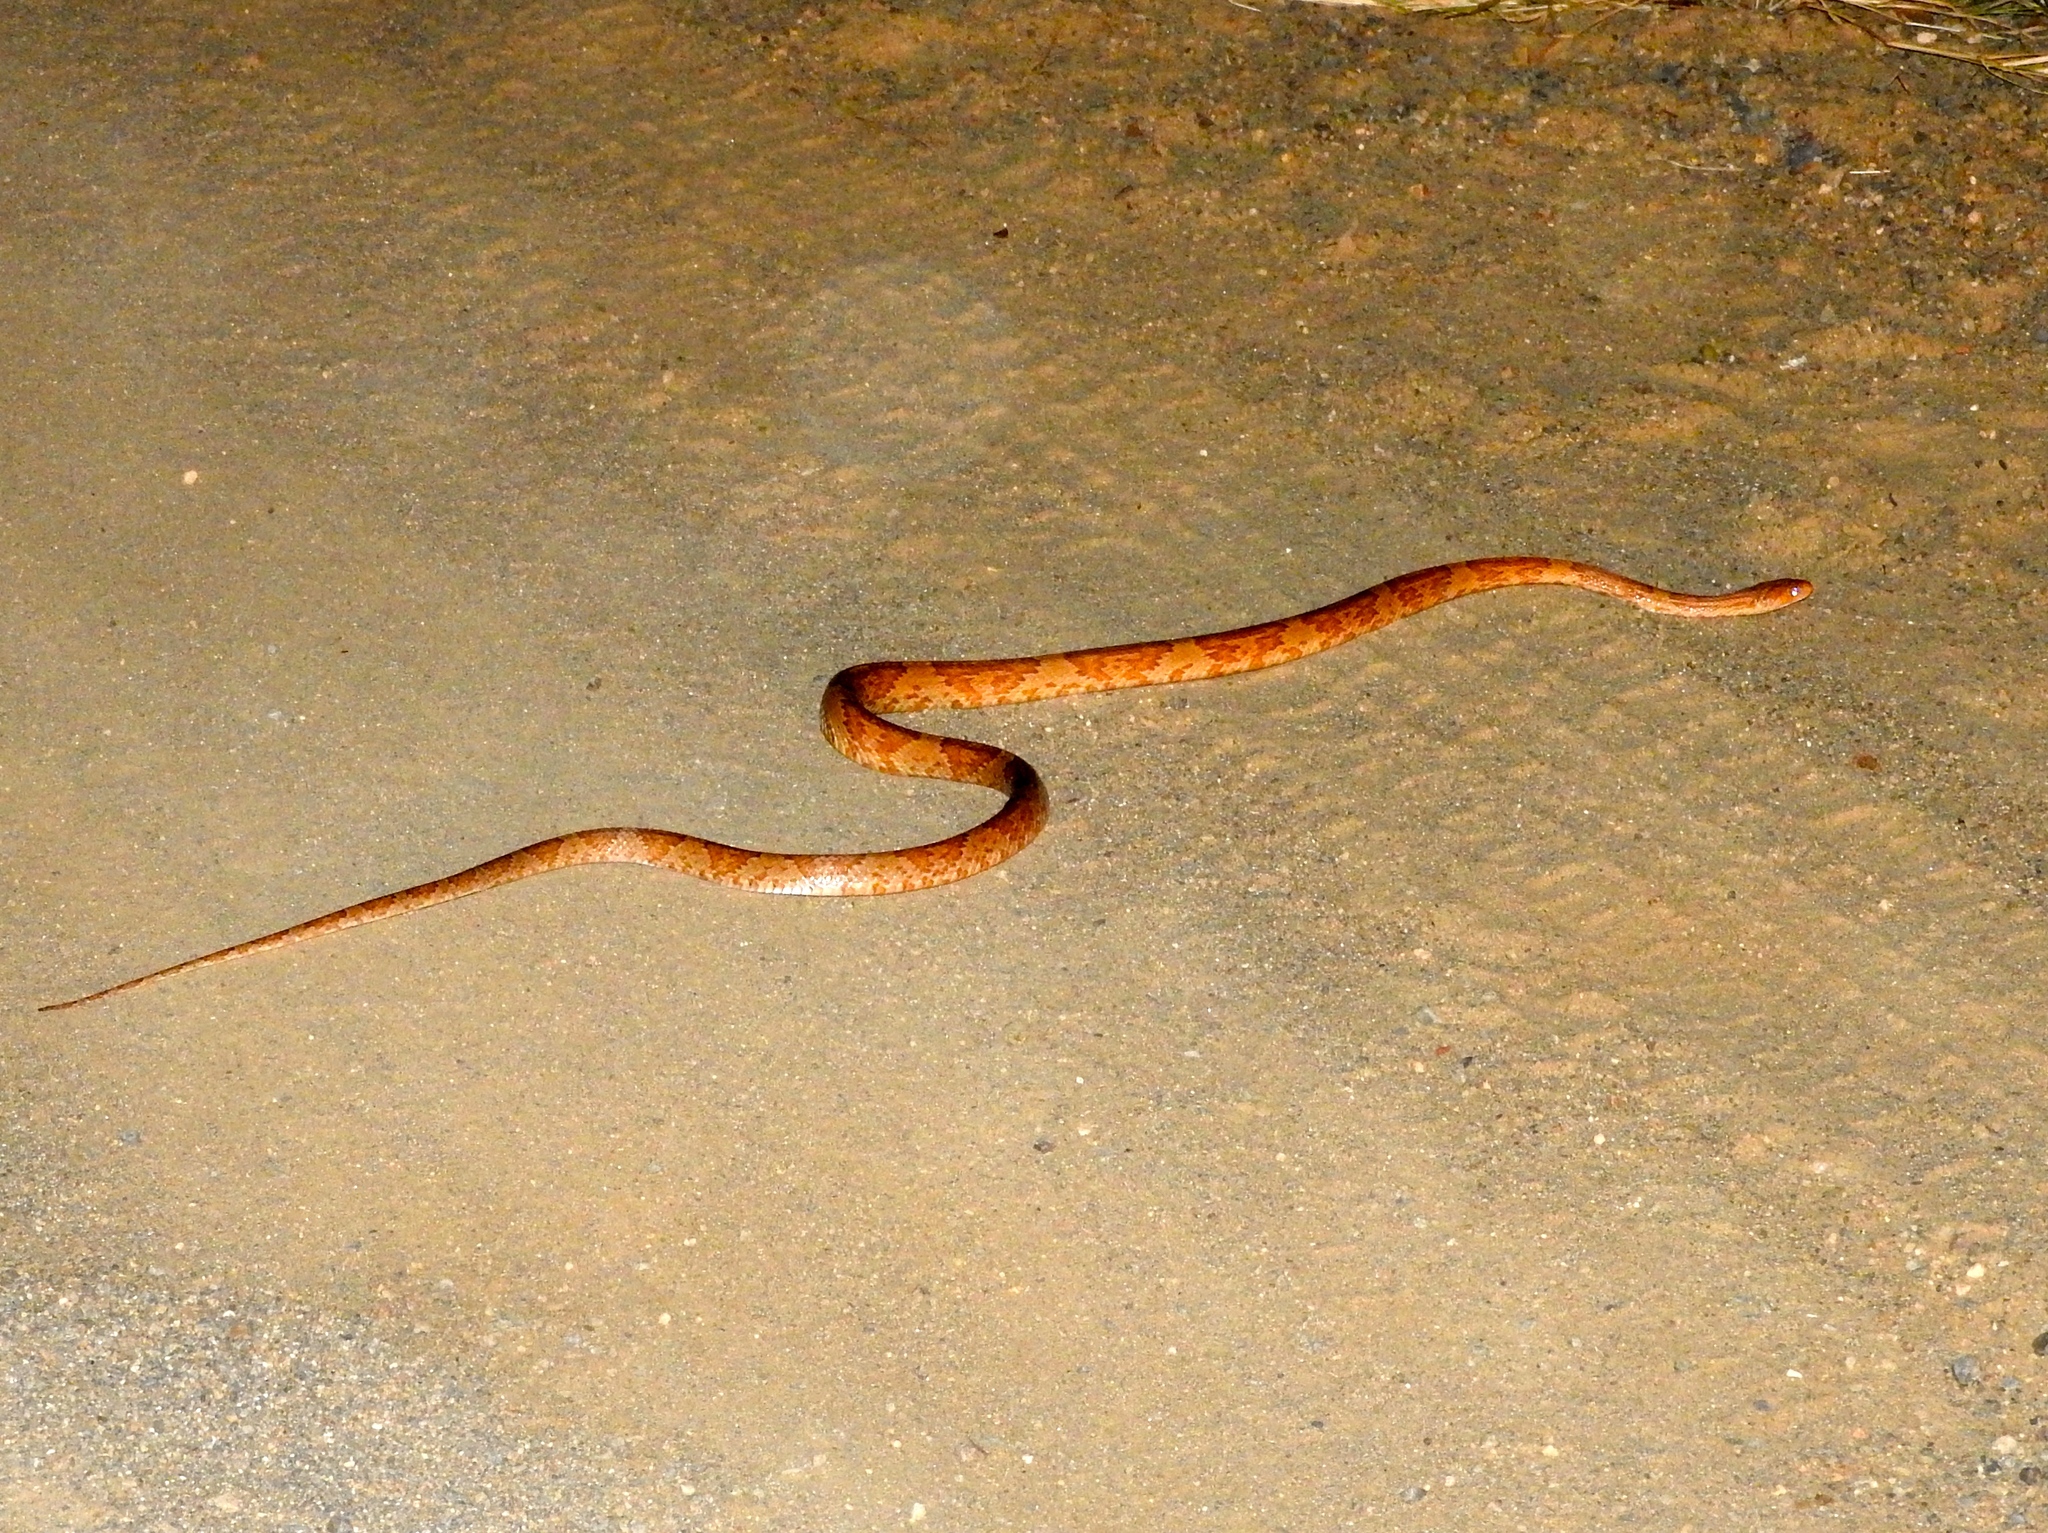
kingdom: Animalia
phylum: Chordata
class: Squamata
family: Colubridae
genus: Trimorphodon
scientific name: Trimorphodon paucimaculatus
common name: Sinaloan lyresnake
